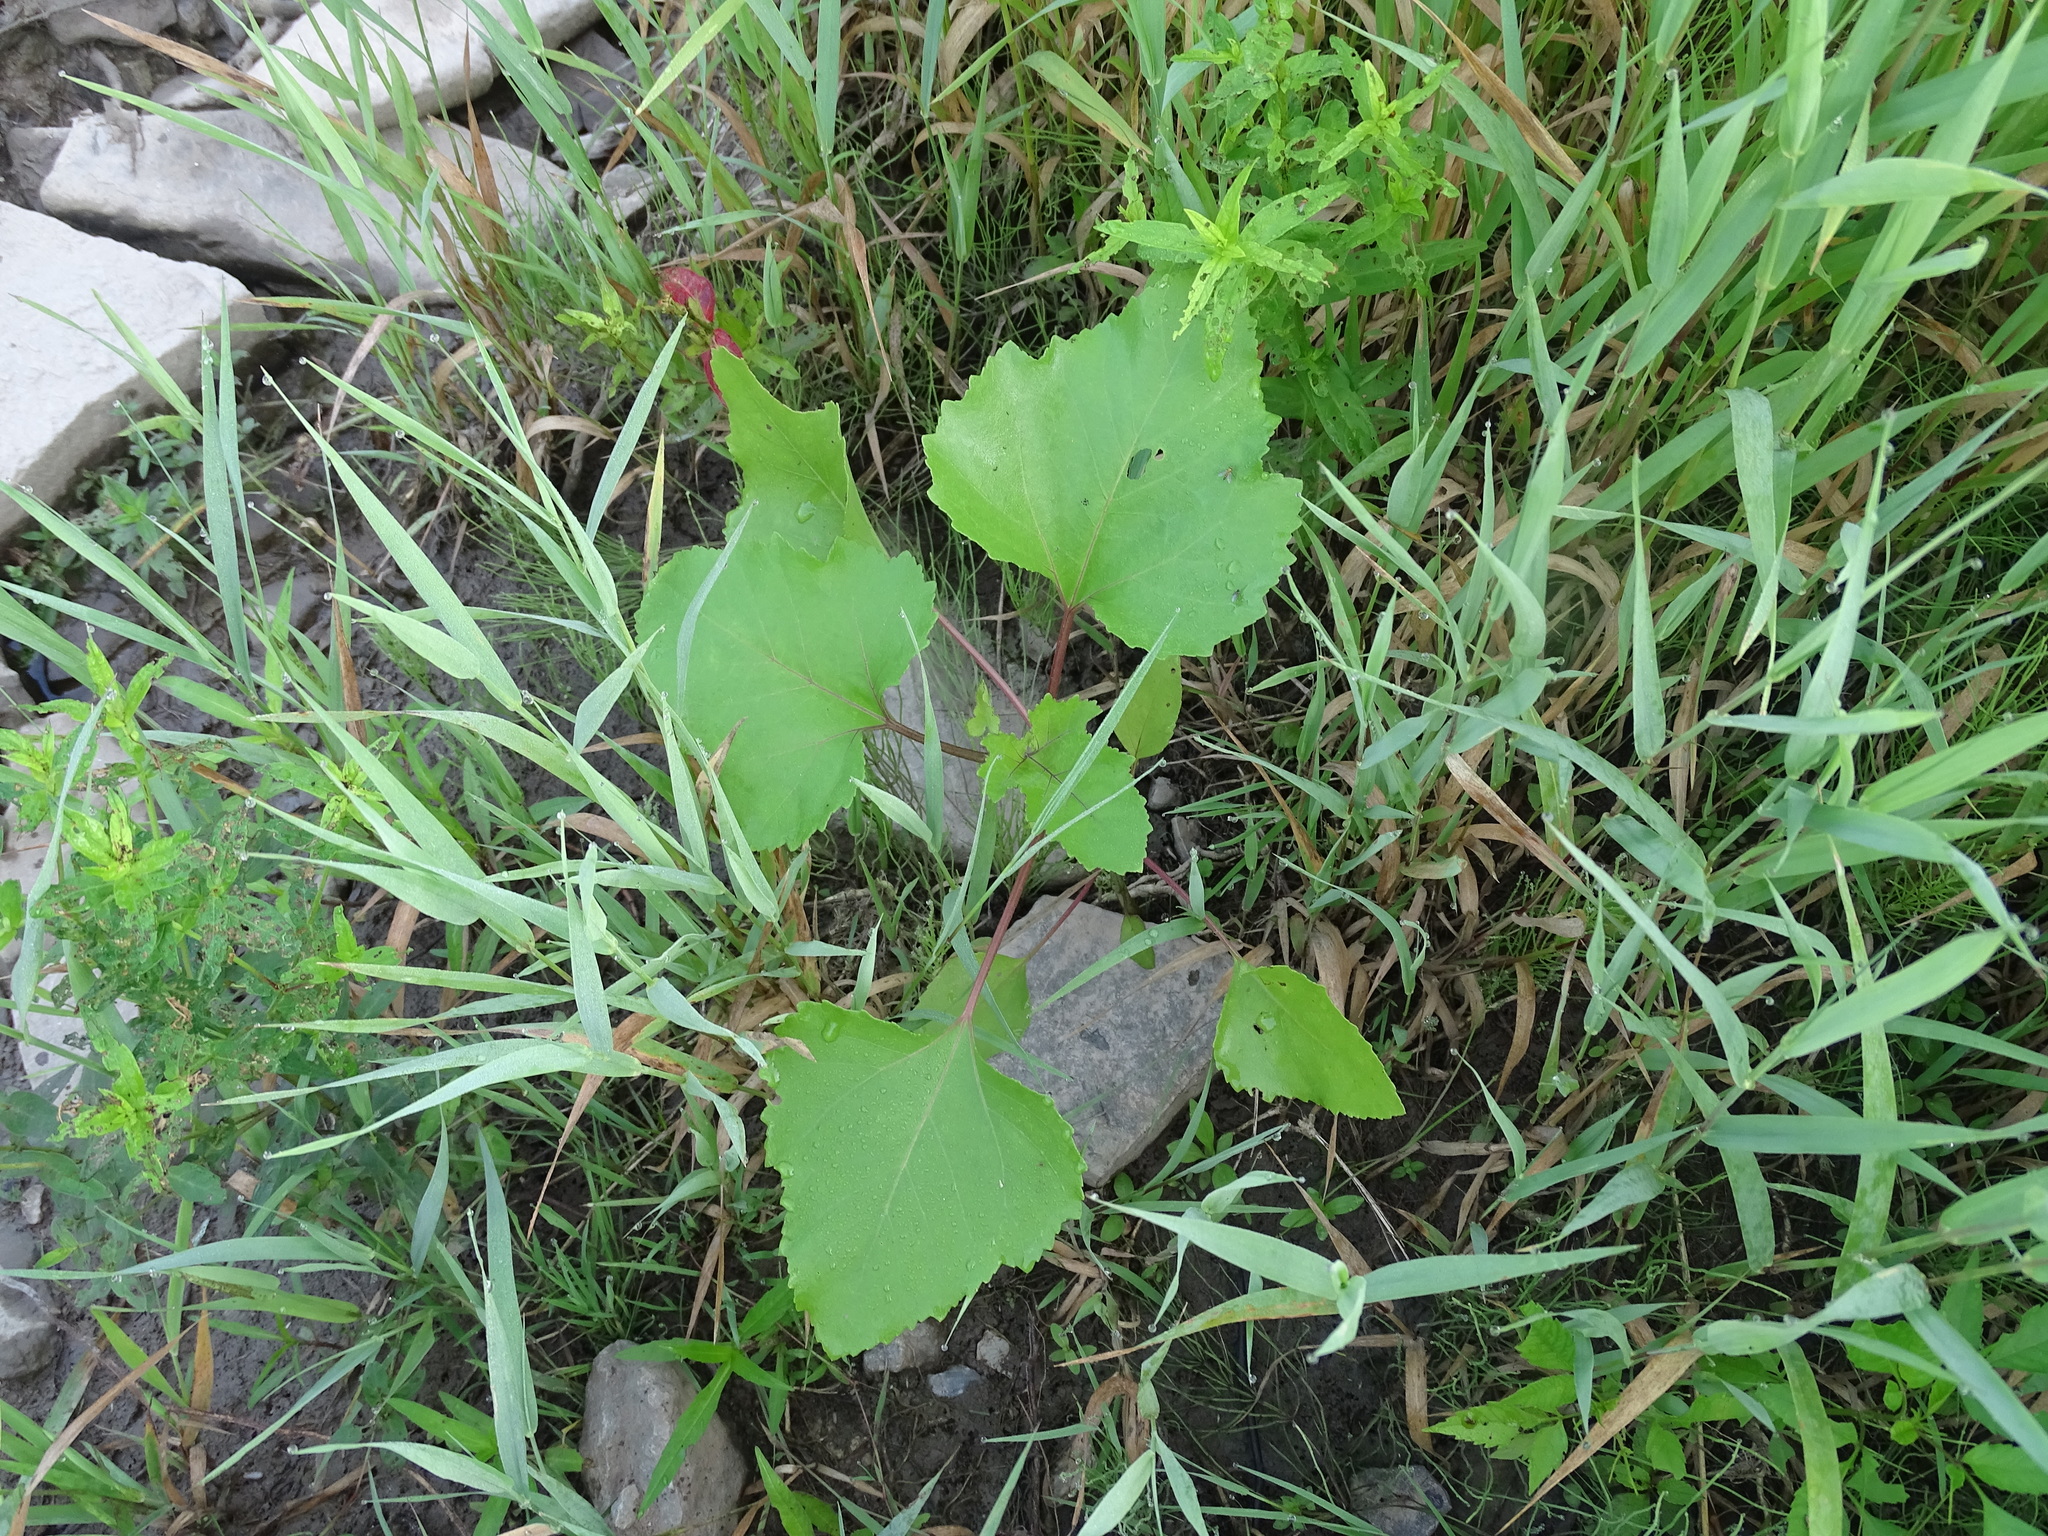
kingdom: Plantae
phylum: Tracheophyta
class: Magnoliopsida
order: Asterales
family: Asteraceae
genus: Xanthium
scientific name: Xanthium strumarium
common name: Rough cocklebur
